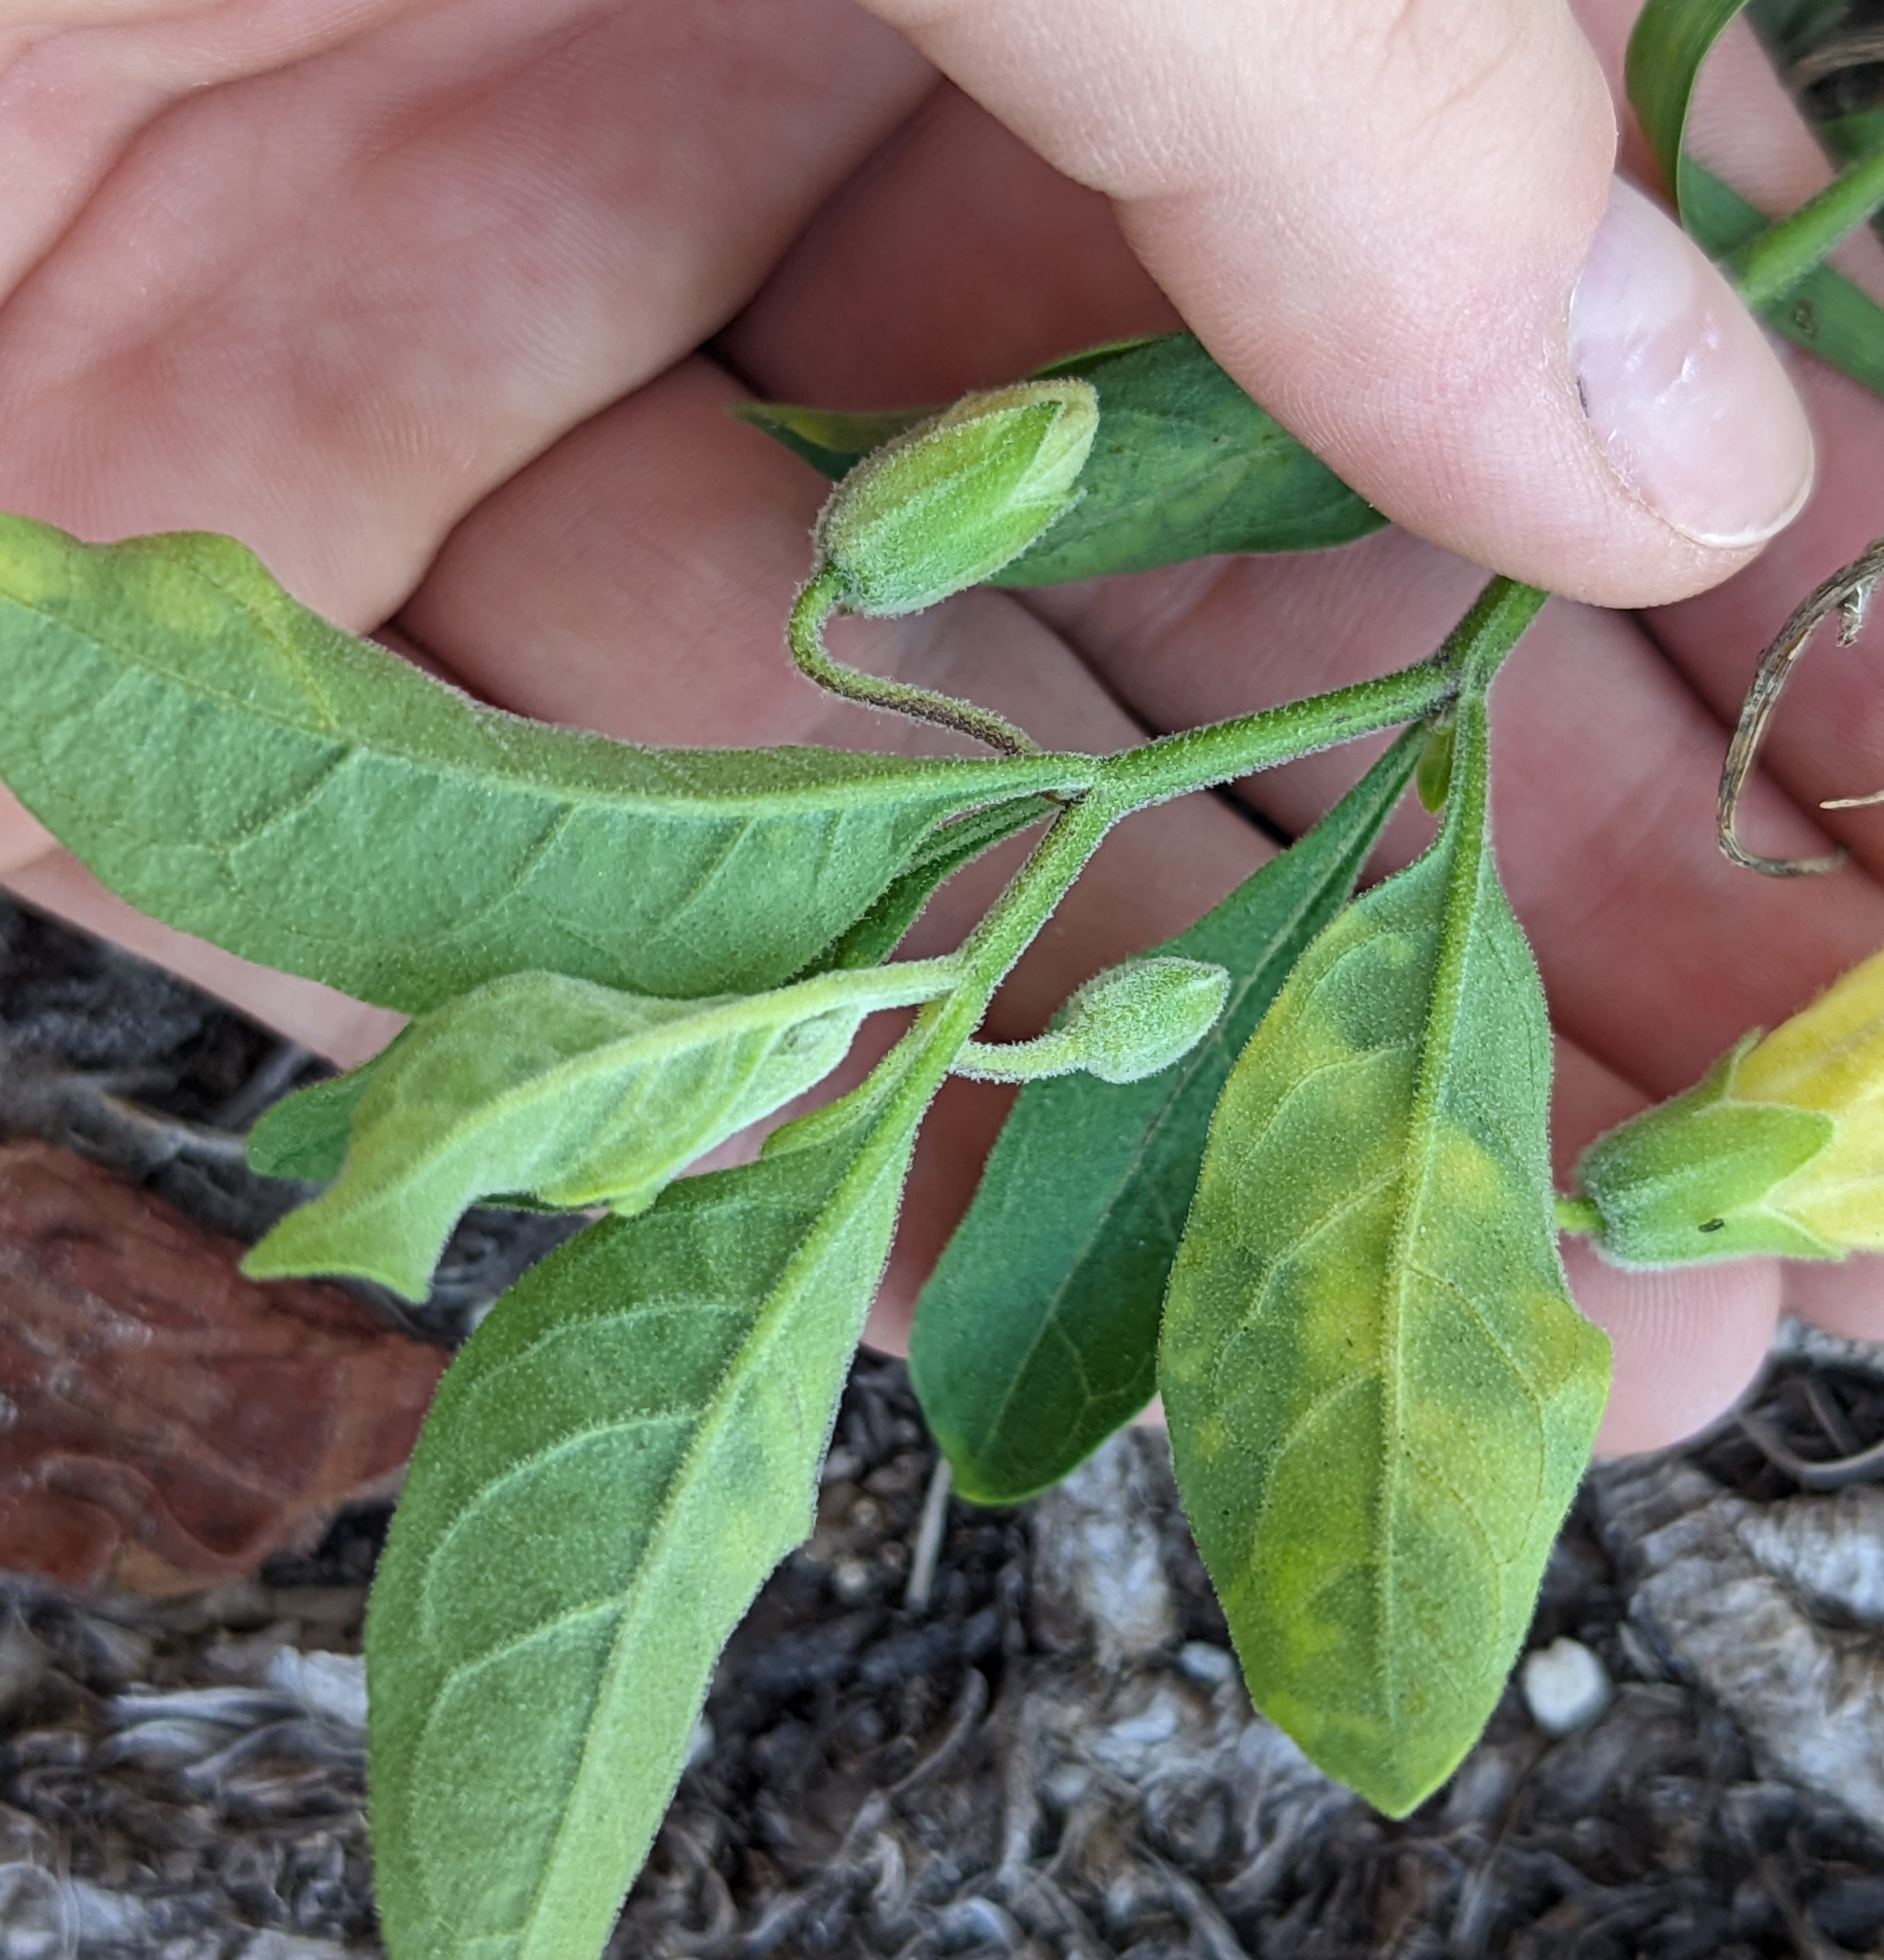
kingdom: Plantae
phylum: Tracheophyta
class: Magnoliopsida
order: Solanales
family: Solanaceae
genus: Physalis
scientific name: Physalis walteri
